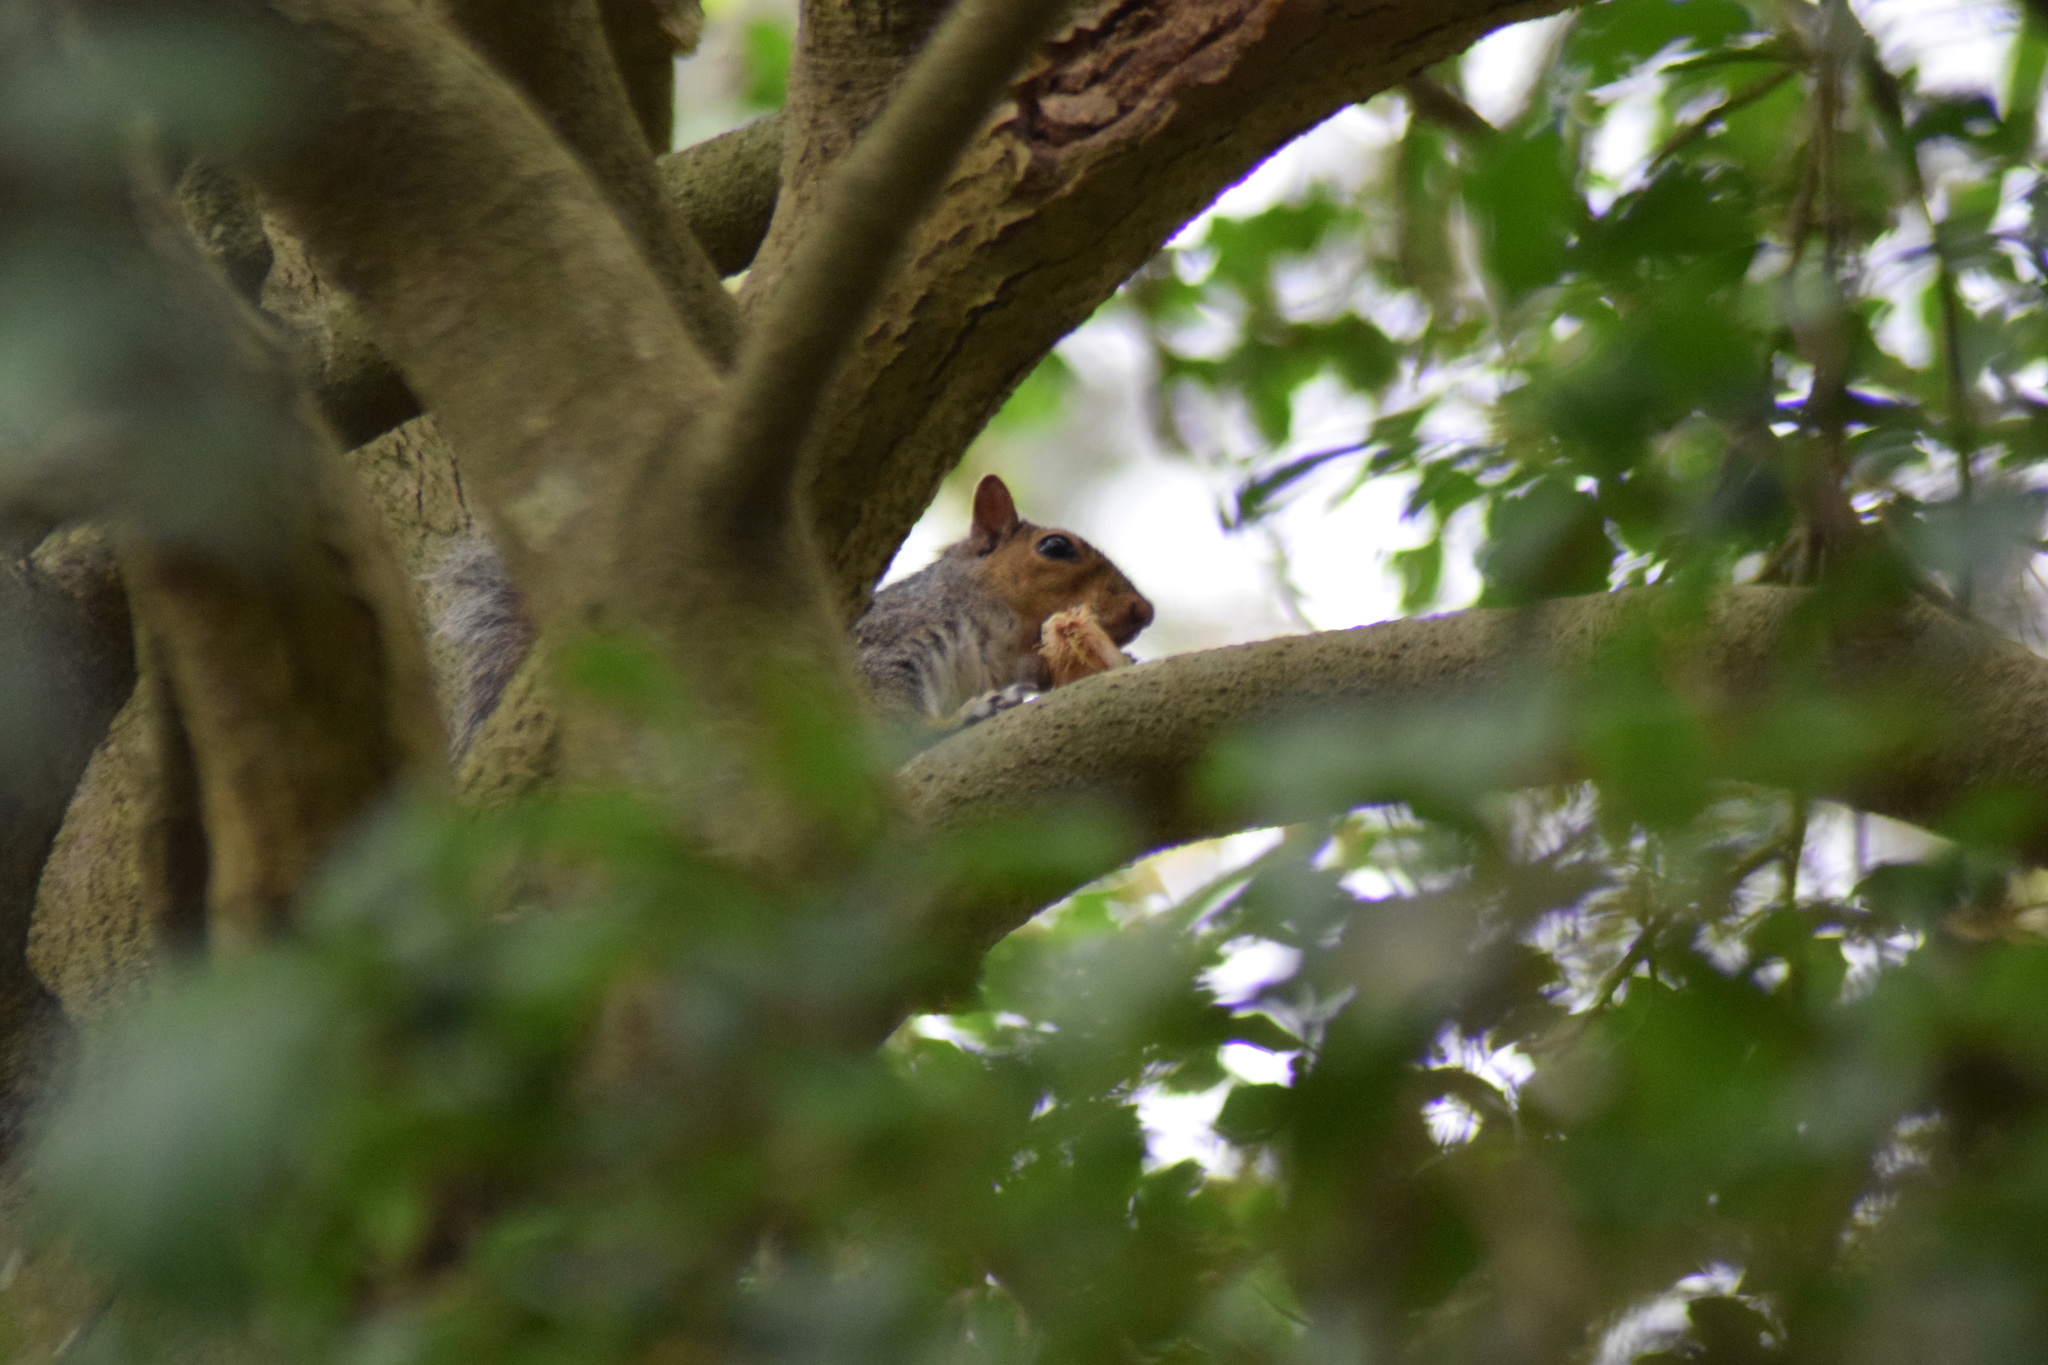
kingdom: Animalia
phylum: Chordata
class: Mammalia
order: Rodentia
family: Sciuridae
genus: Sciurus
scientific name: Sciurus carolinensis
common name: Eastern gray squirrel
